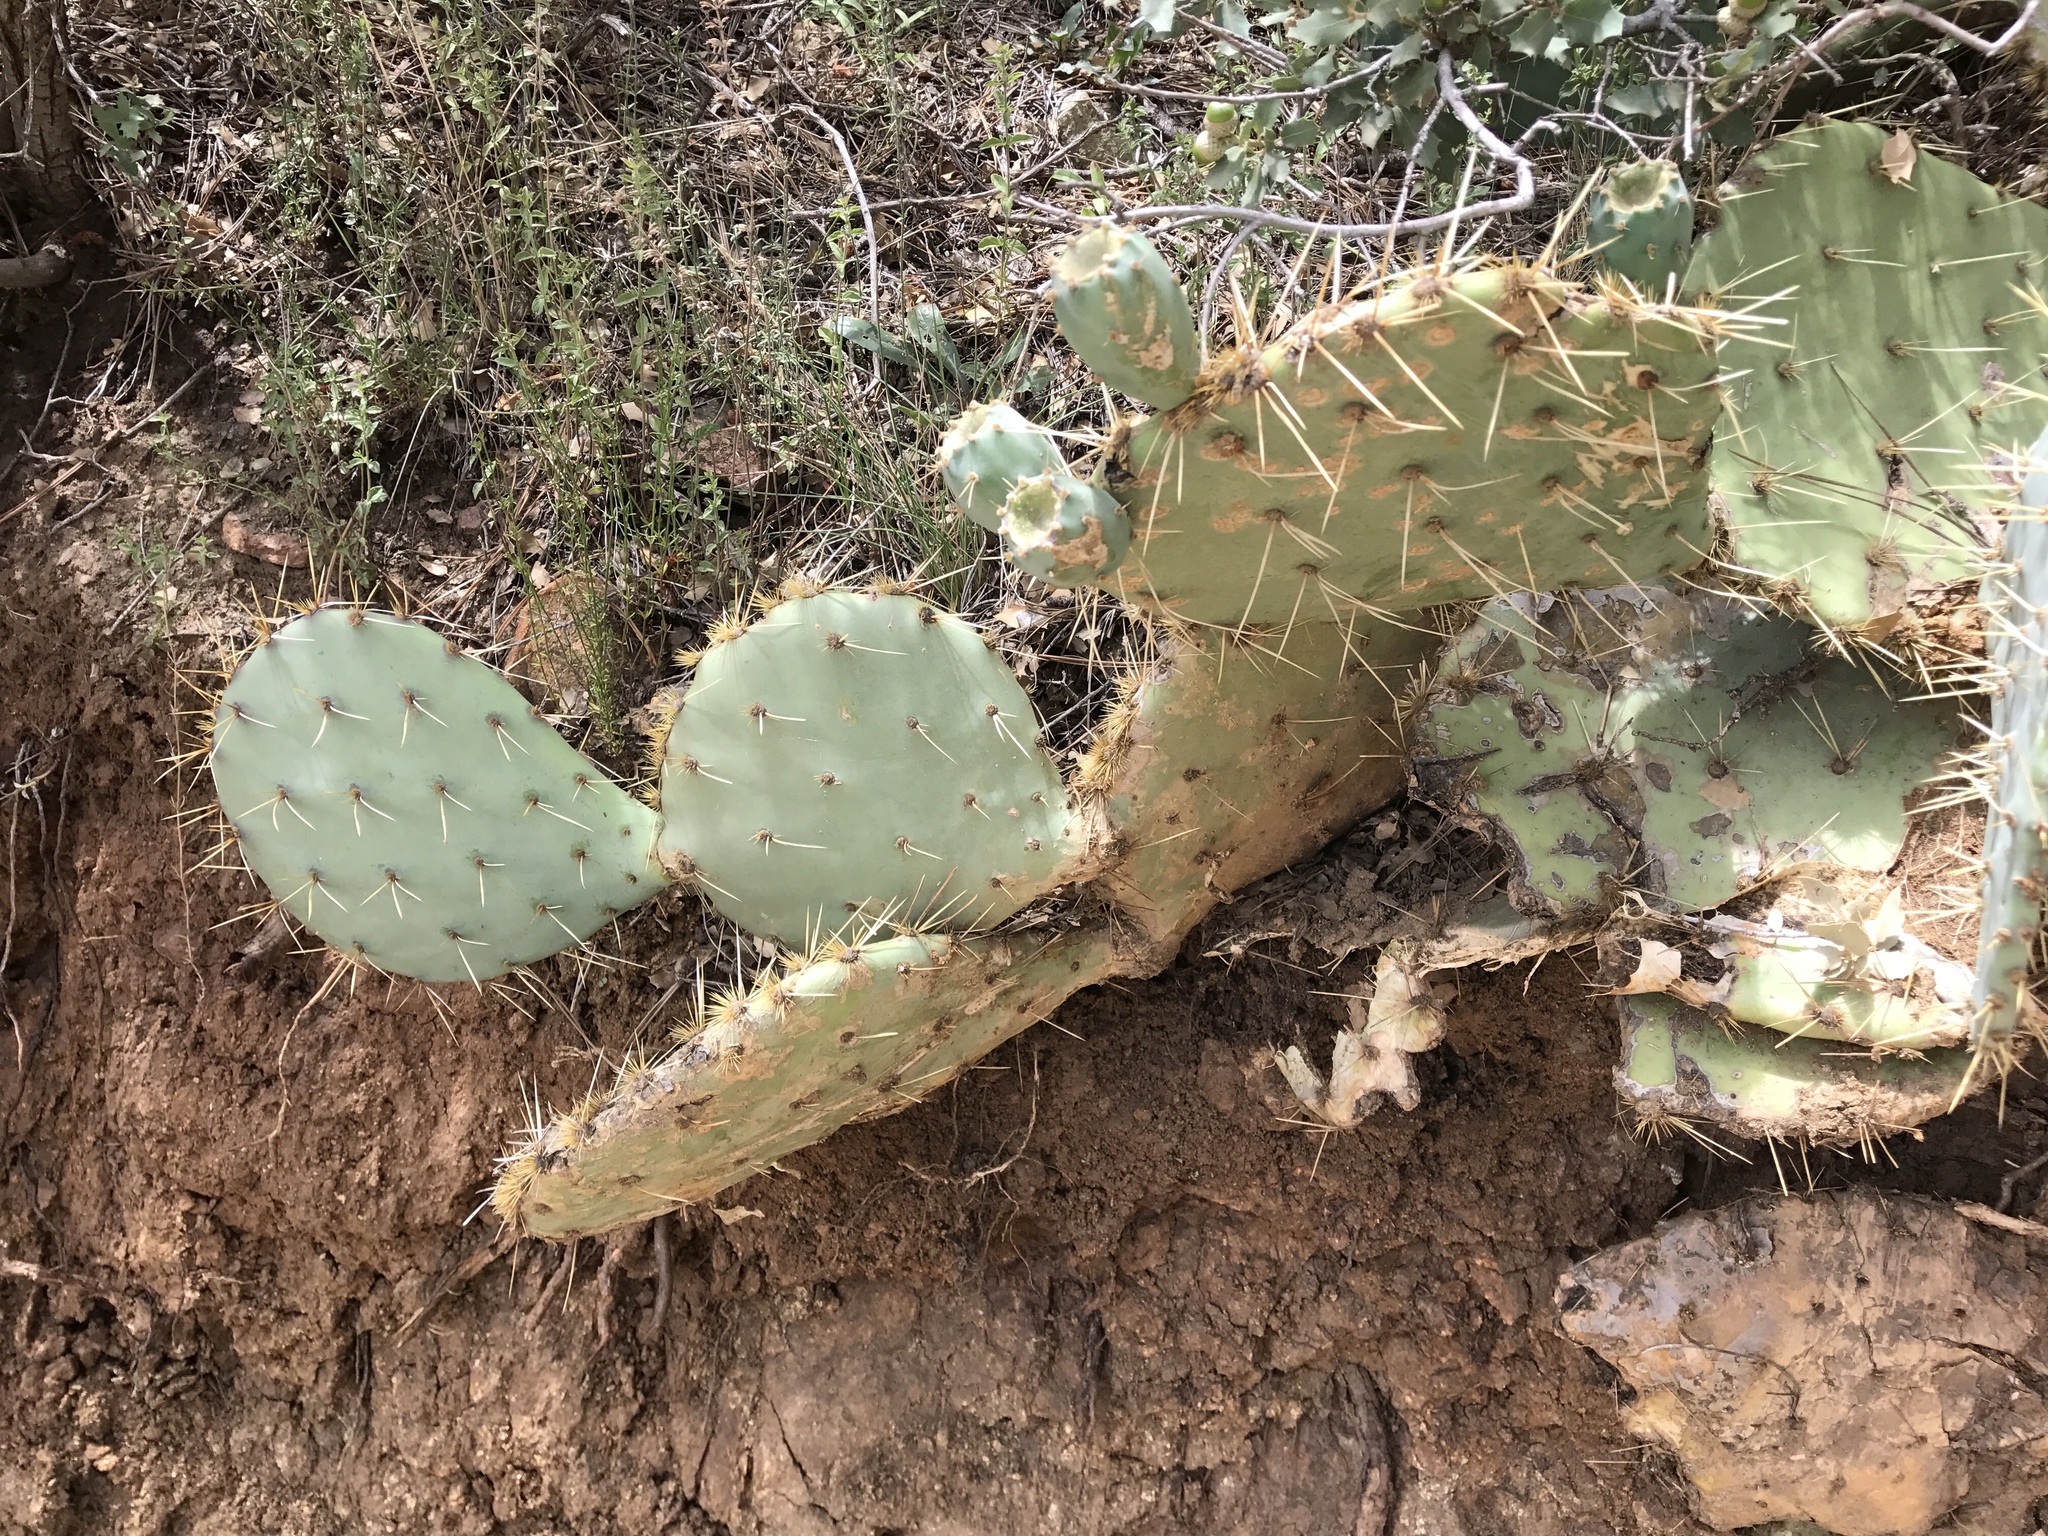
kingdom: Plantae
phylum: Tracheophyta
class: Magnoliopsida
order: Caryophyllales
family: Cactaceae
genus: Opuntia
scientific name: Opuntia phaeacantha
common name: New mexico prickly-pear
